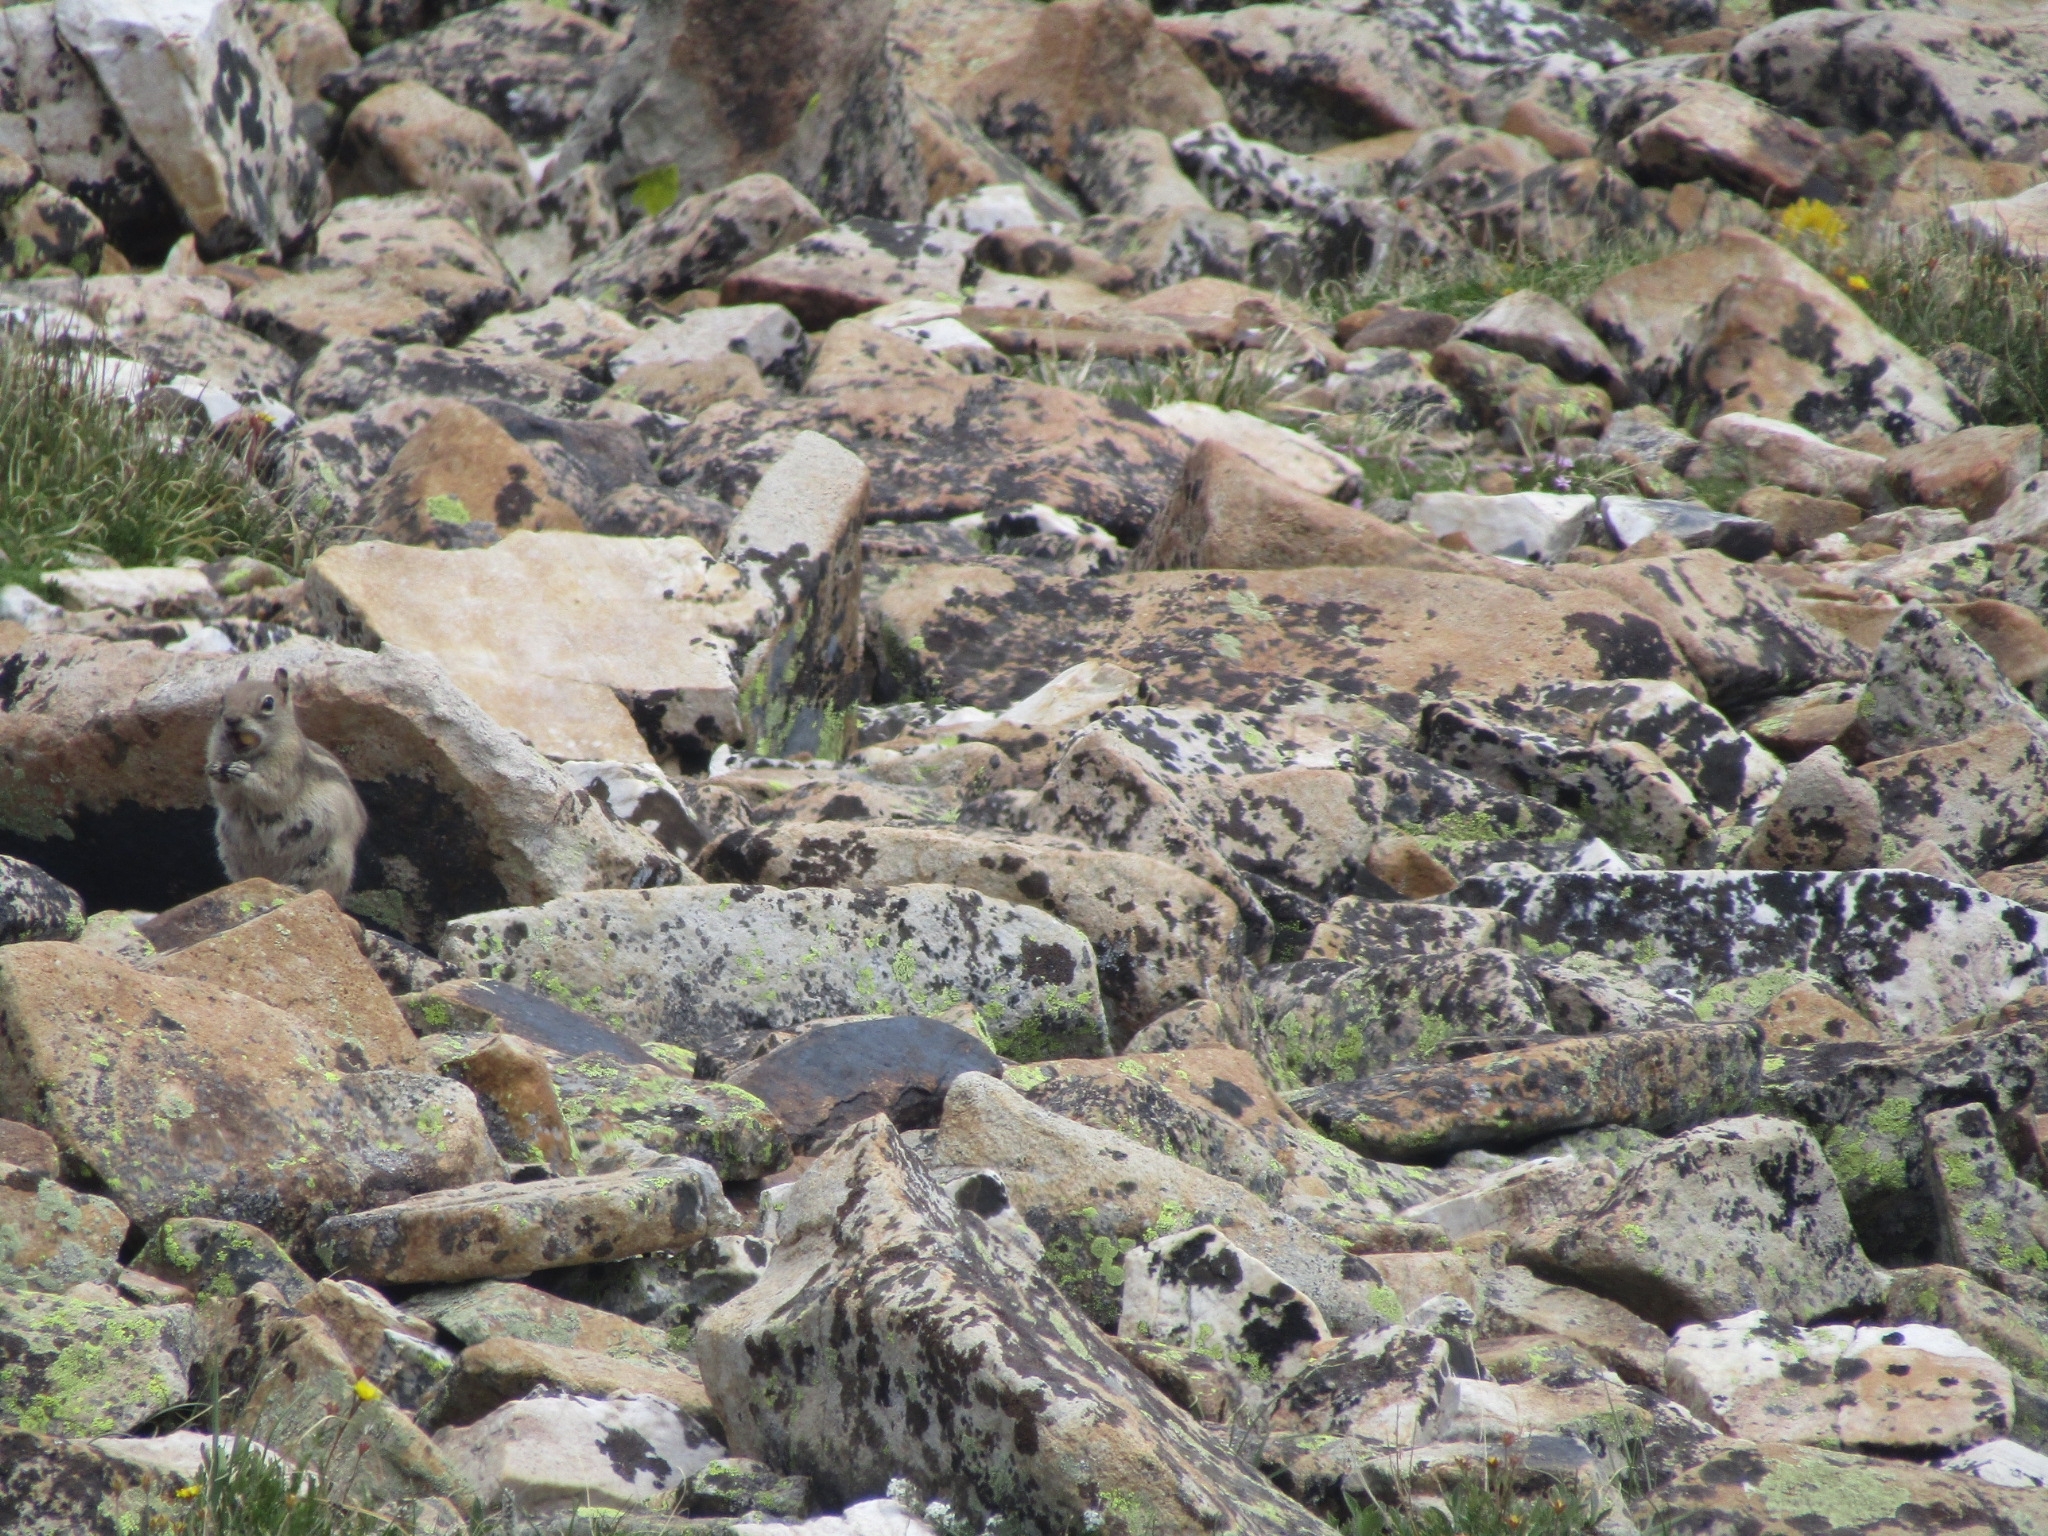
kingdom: Animalia
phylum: Chordata
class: Mammalia
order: Rodentia
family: Sciuridae
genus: Callospermophilus
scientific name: Callospermophilus lateralis
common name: Golden-mantled ground squirrel
